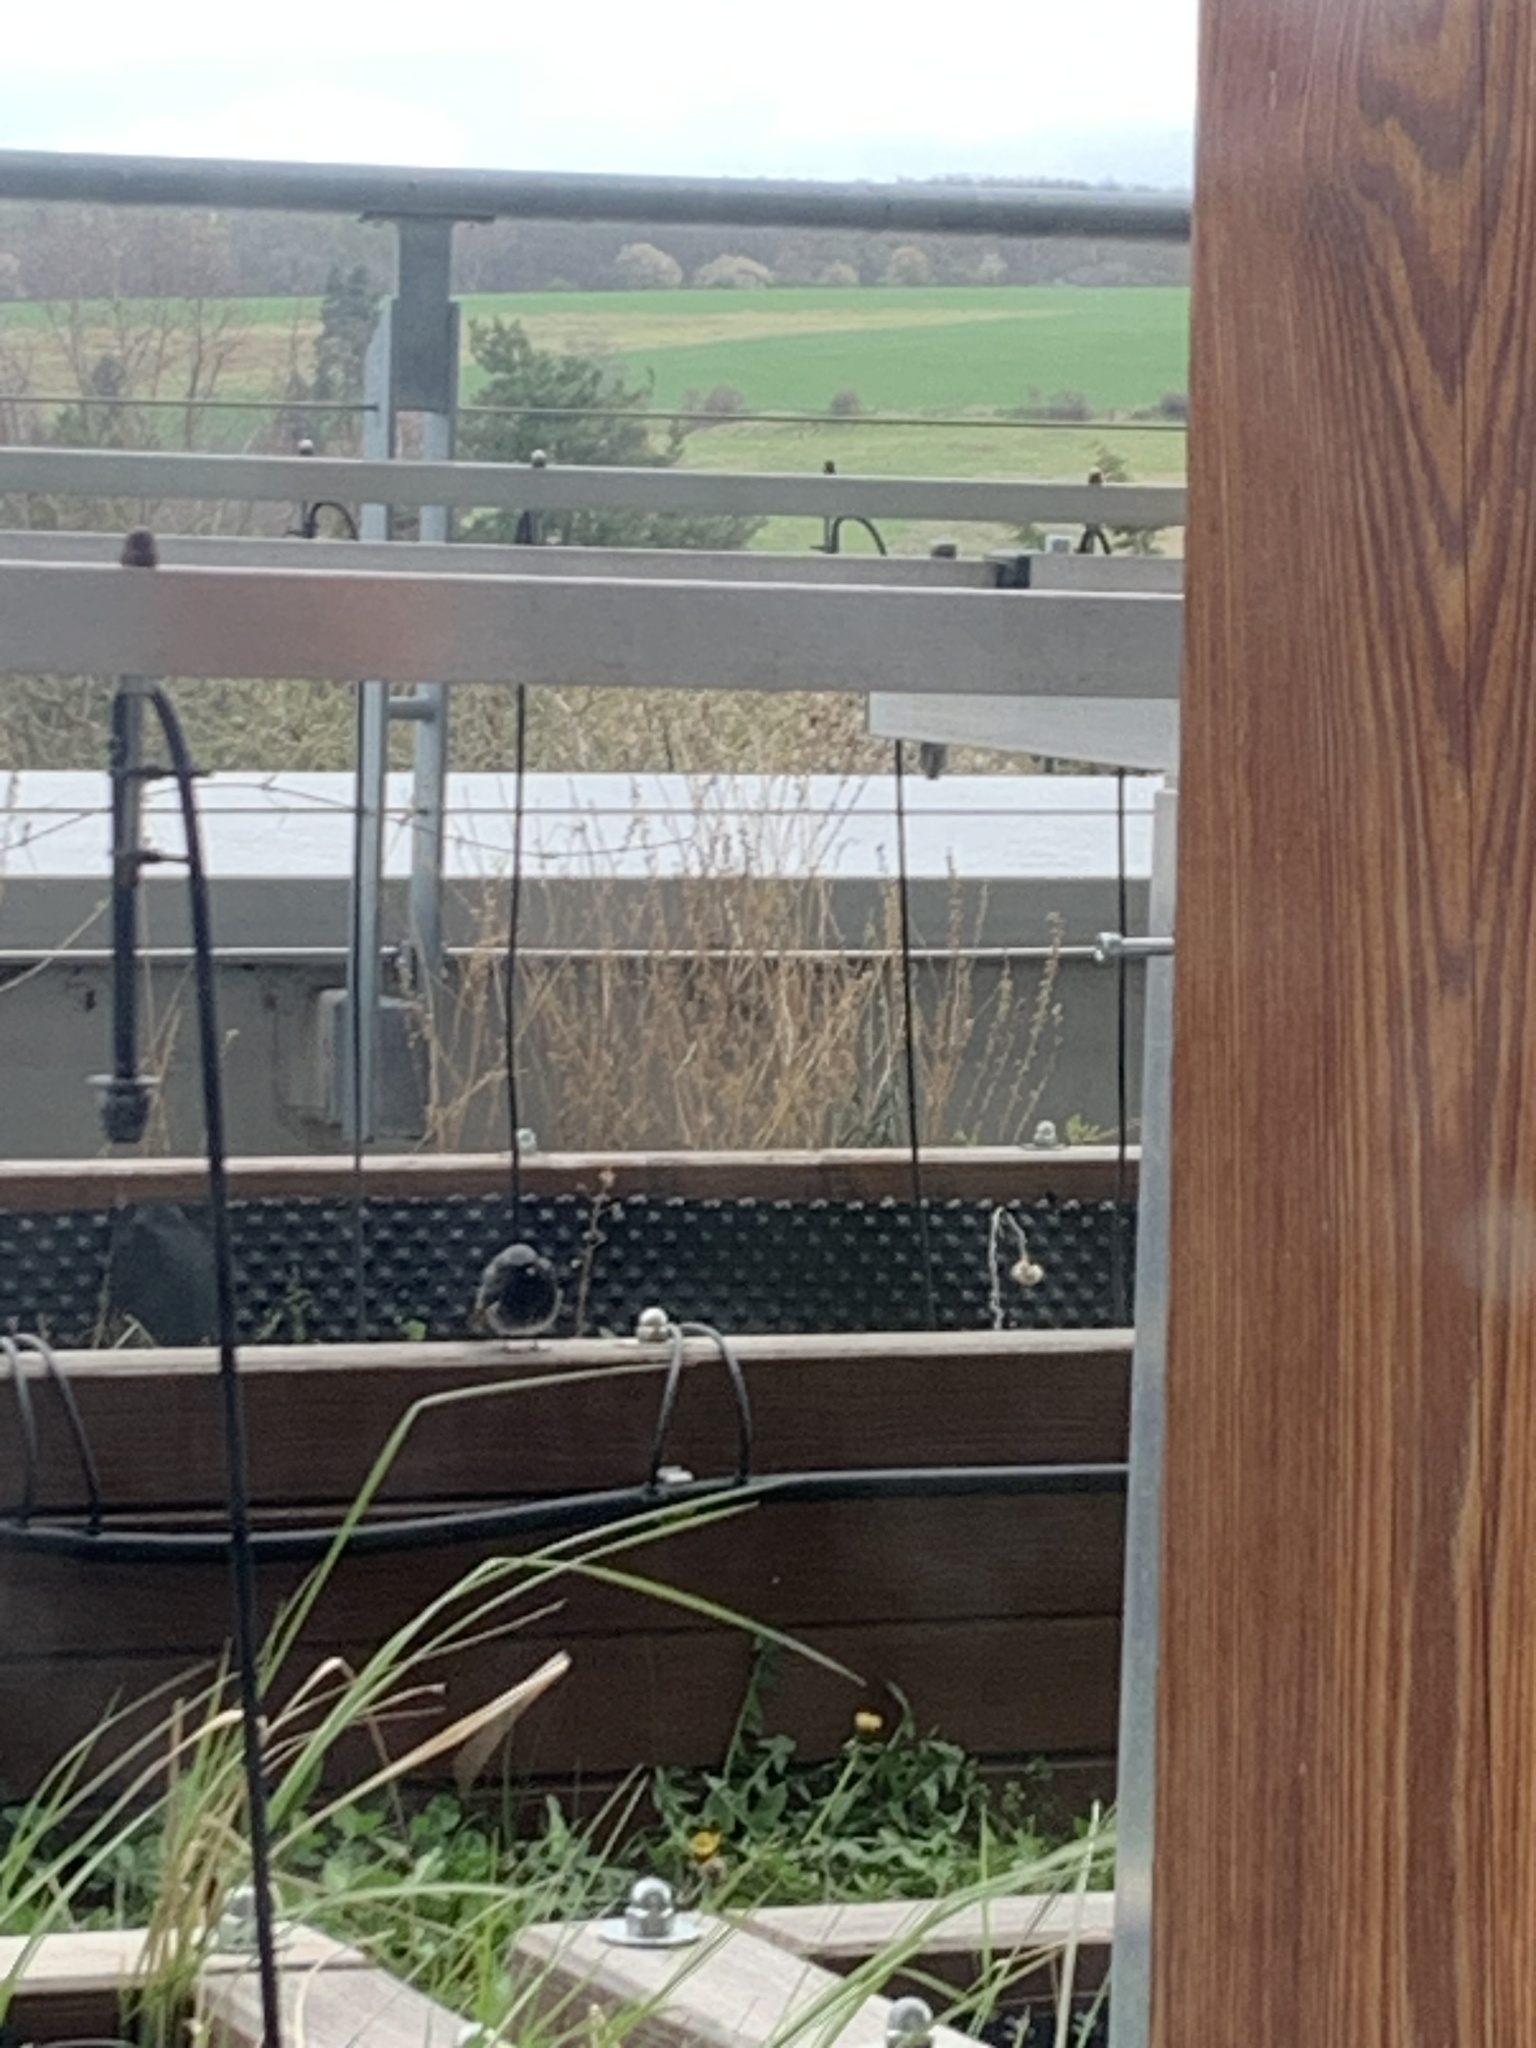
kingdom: Animalia
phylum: Chordata
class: Aves
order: Passeriformes
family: Muscicapidae
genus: Phoenicurus
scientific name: Phoenicurus ochruros
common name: Black redstart
